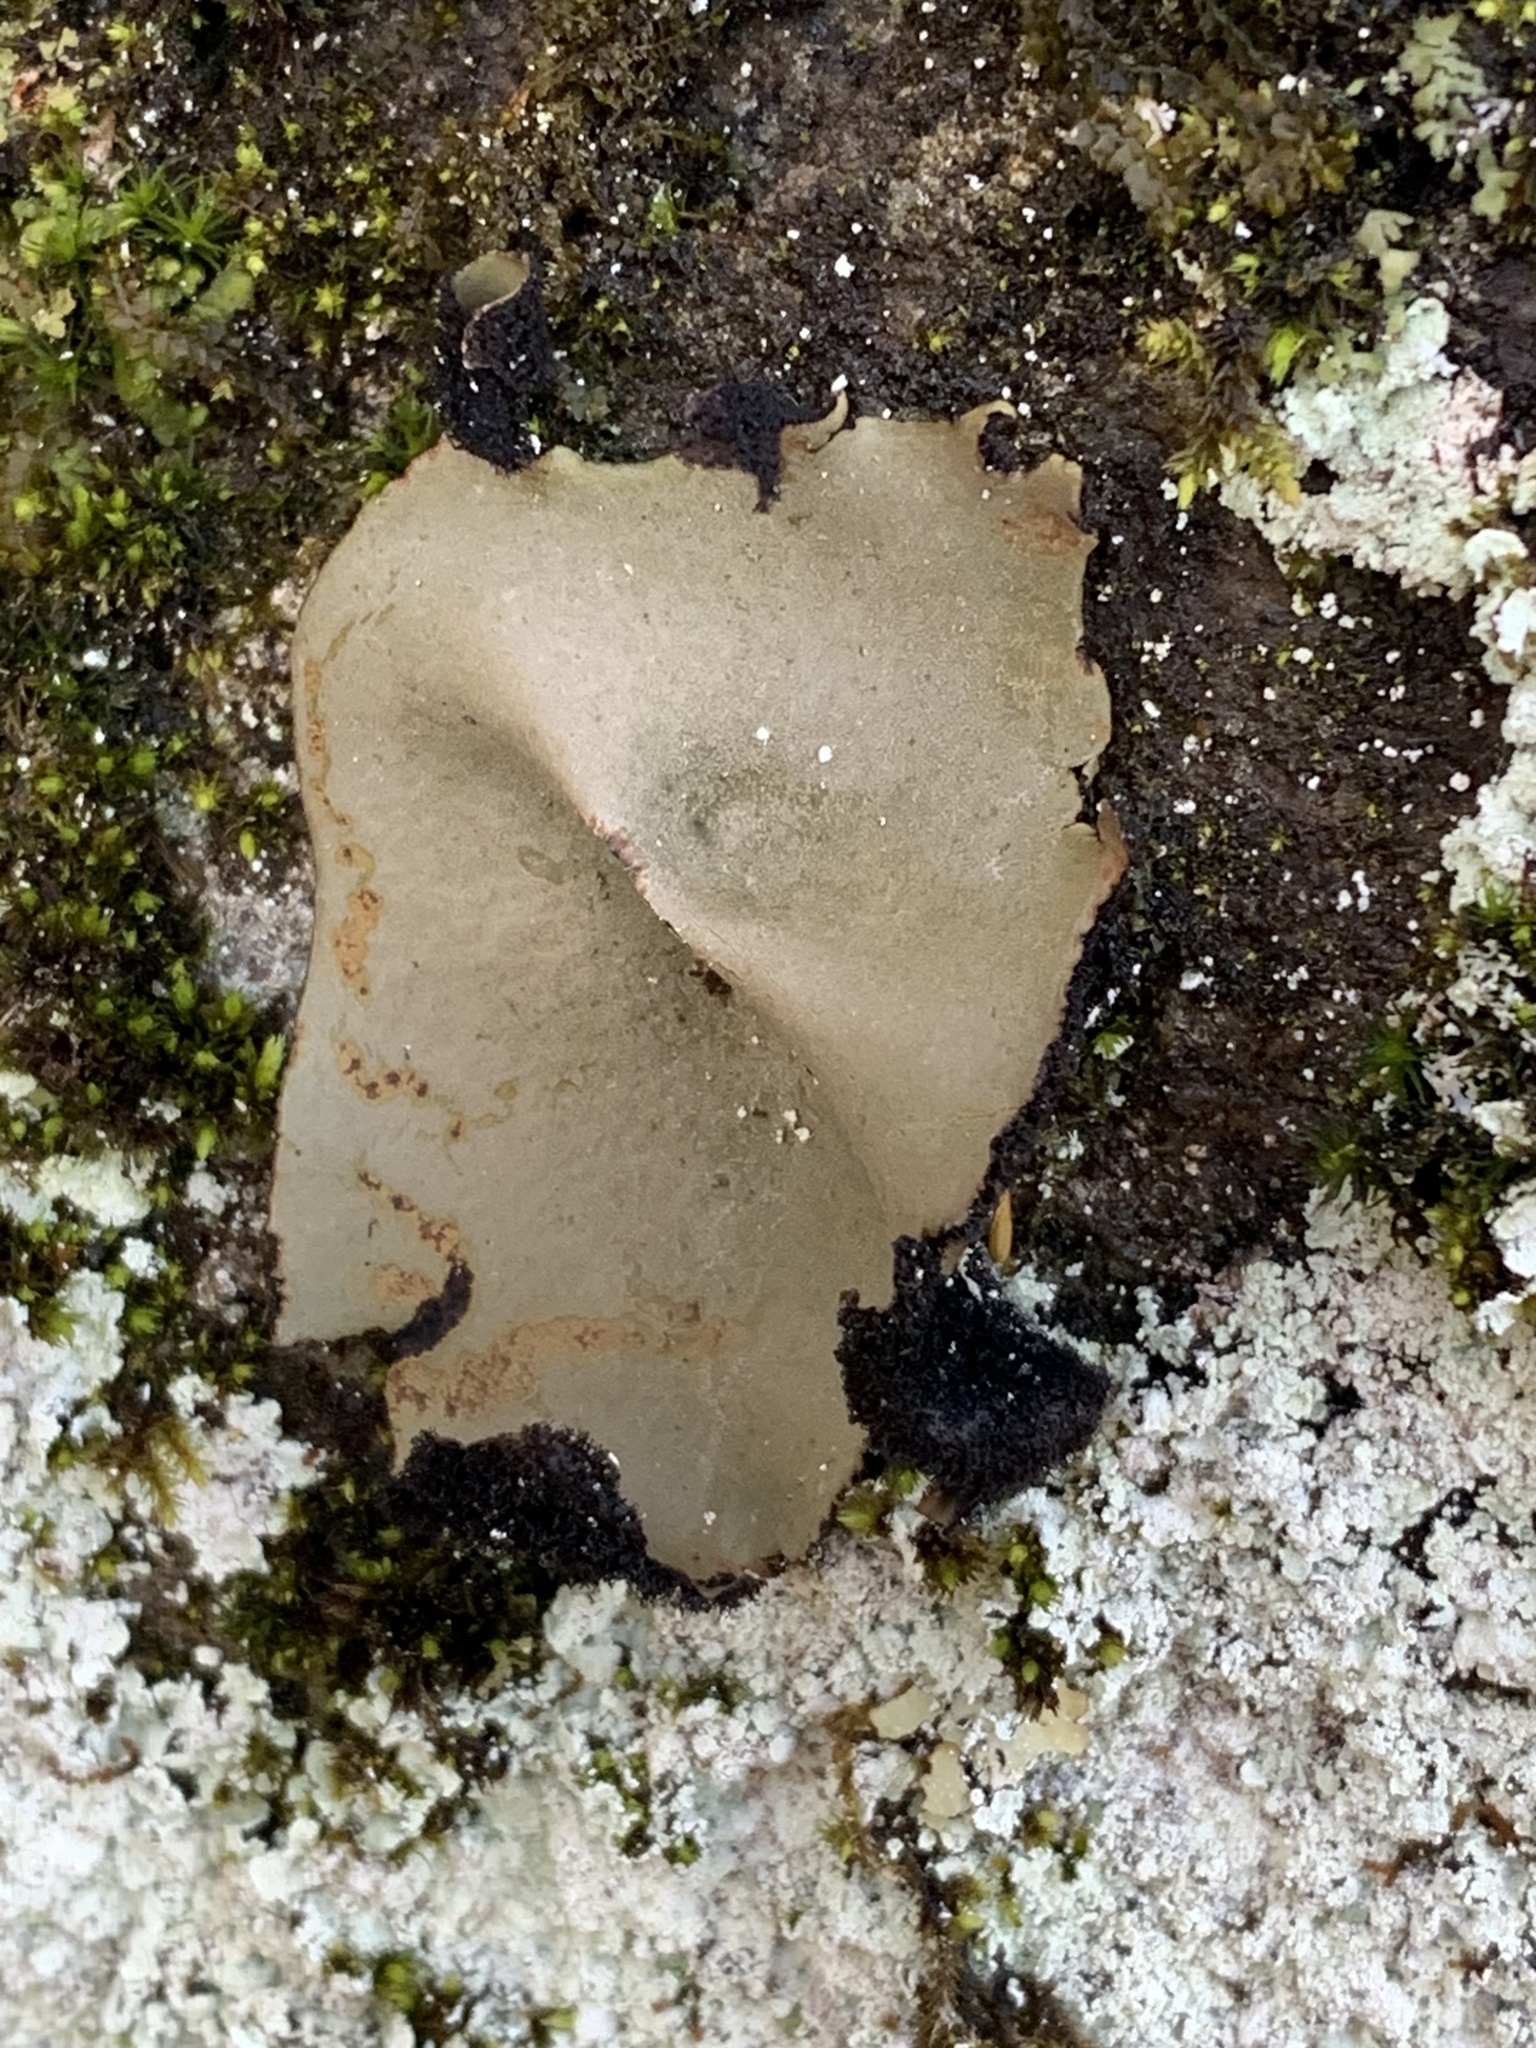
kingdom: Fungi
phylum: Ascomycota
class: Lecanoromycetes
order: Umbilicariales
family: Umbilicariaceae
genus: Umbilicaria
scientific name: Umbilicaria mammulata
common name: Smooth rock tripe
